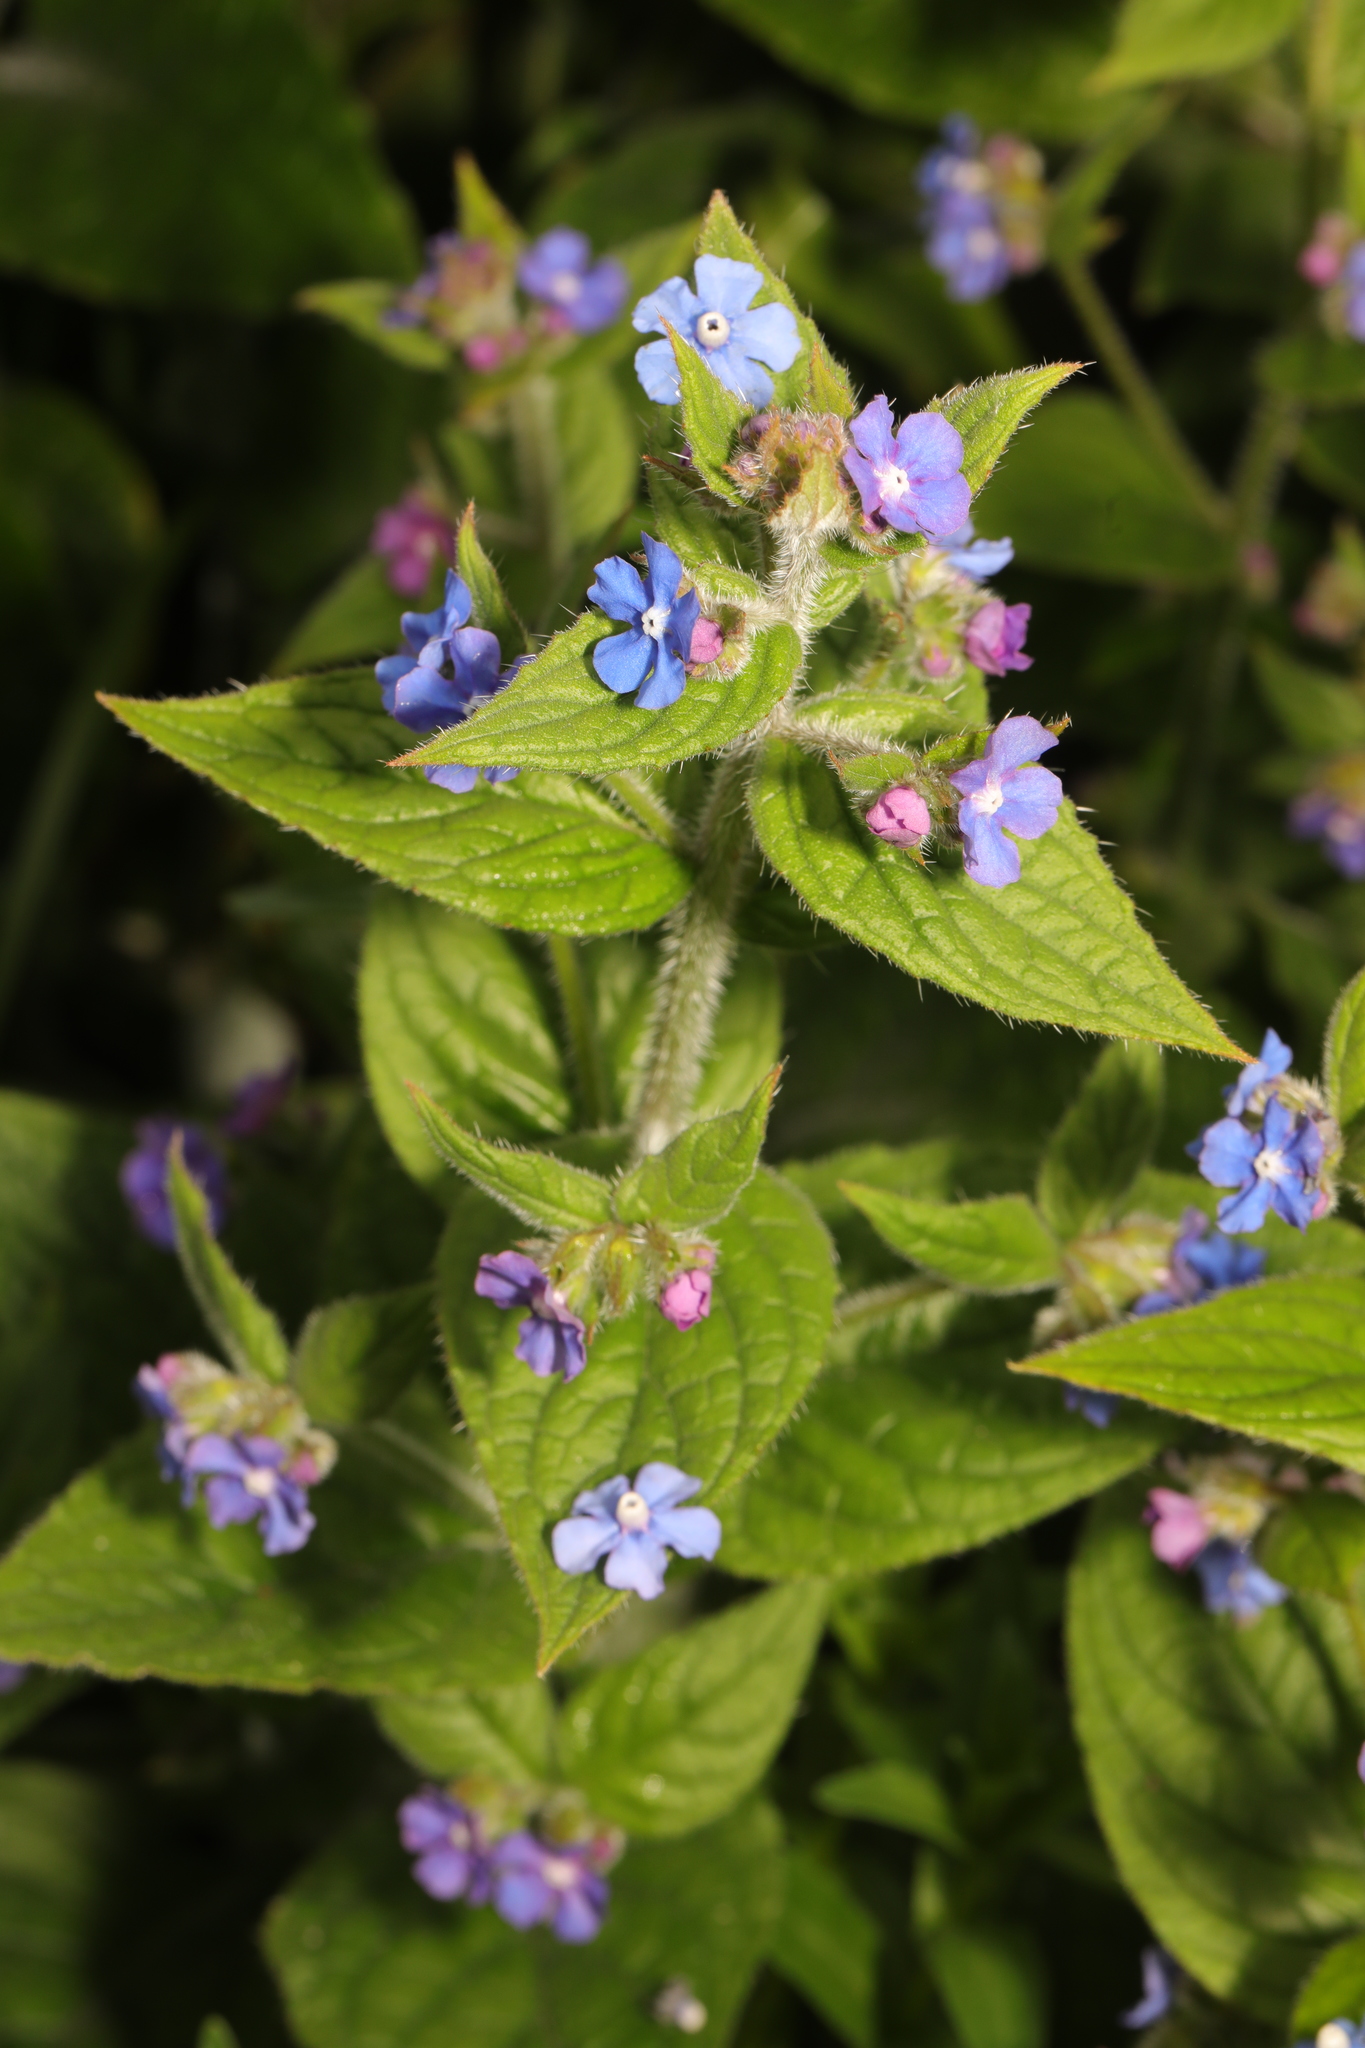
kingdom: Plantae
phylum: Tracheophyta
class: Magnoliopsida
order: Boraginales
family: Boraginaceae
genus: Pentaglottis
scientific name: Pentaglottis sempervirens
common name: Green alkanet
